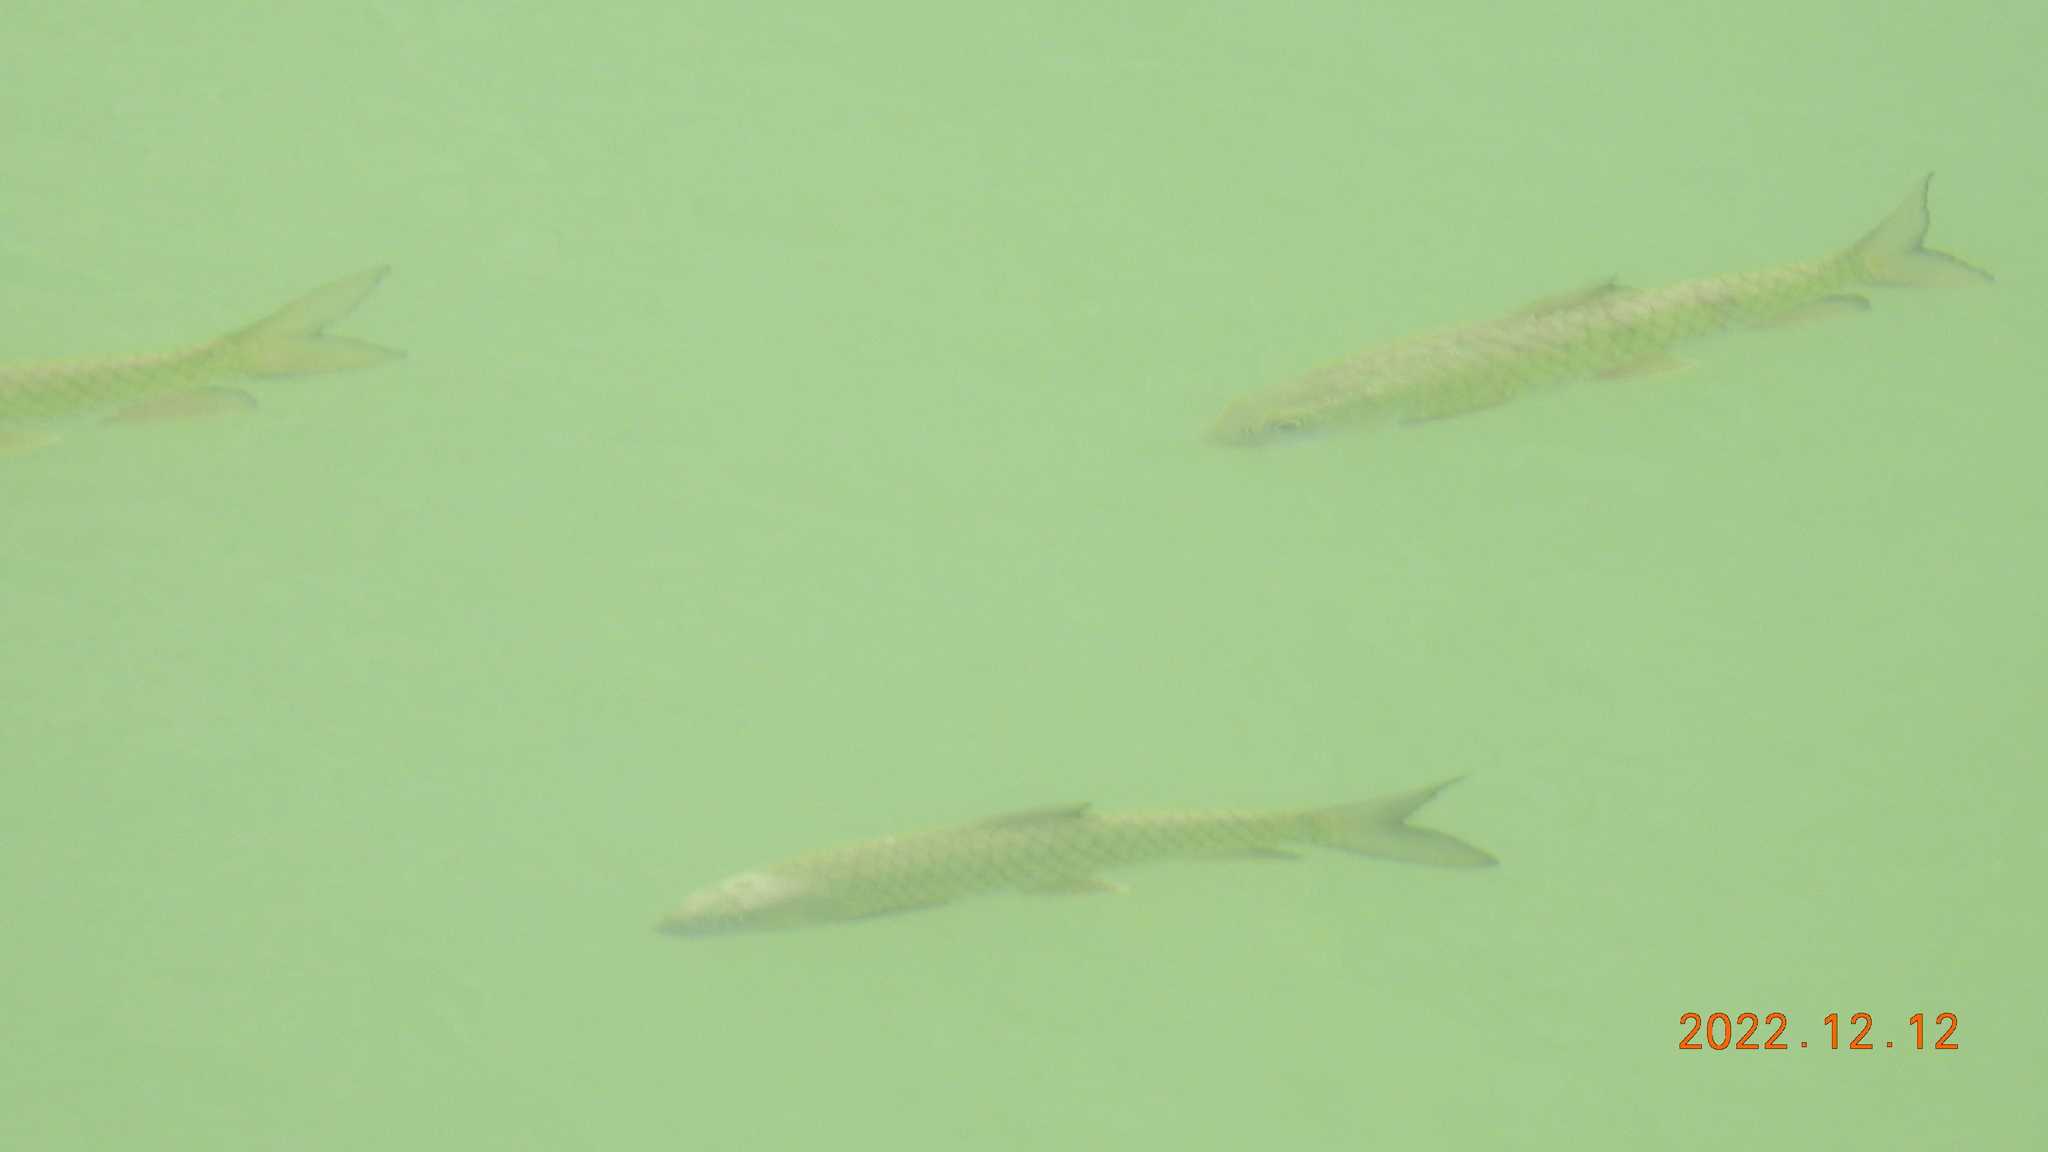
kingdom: Animalia
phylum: Chordata
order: Cypriniformes
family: Cyprinidae
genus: Spinibarbus
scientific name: Spinibarbus hollandi
